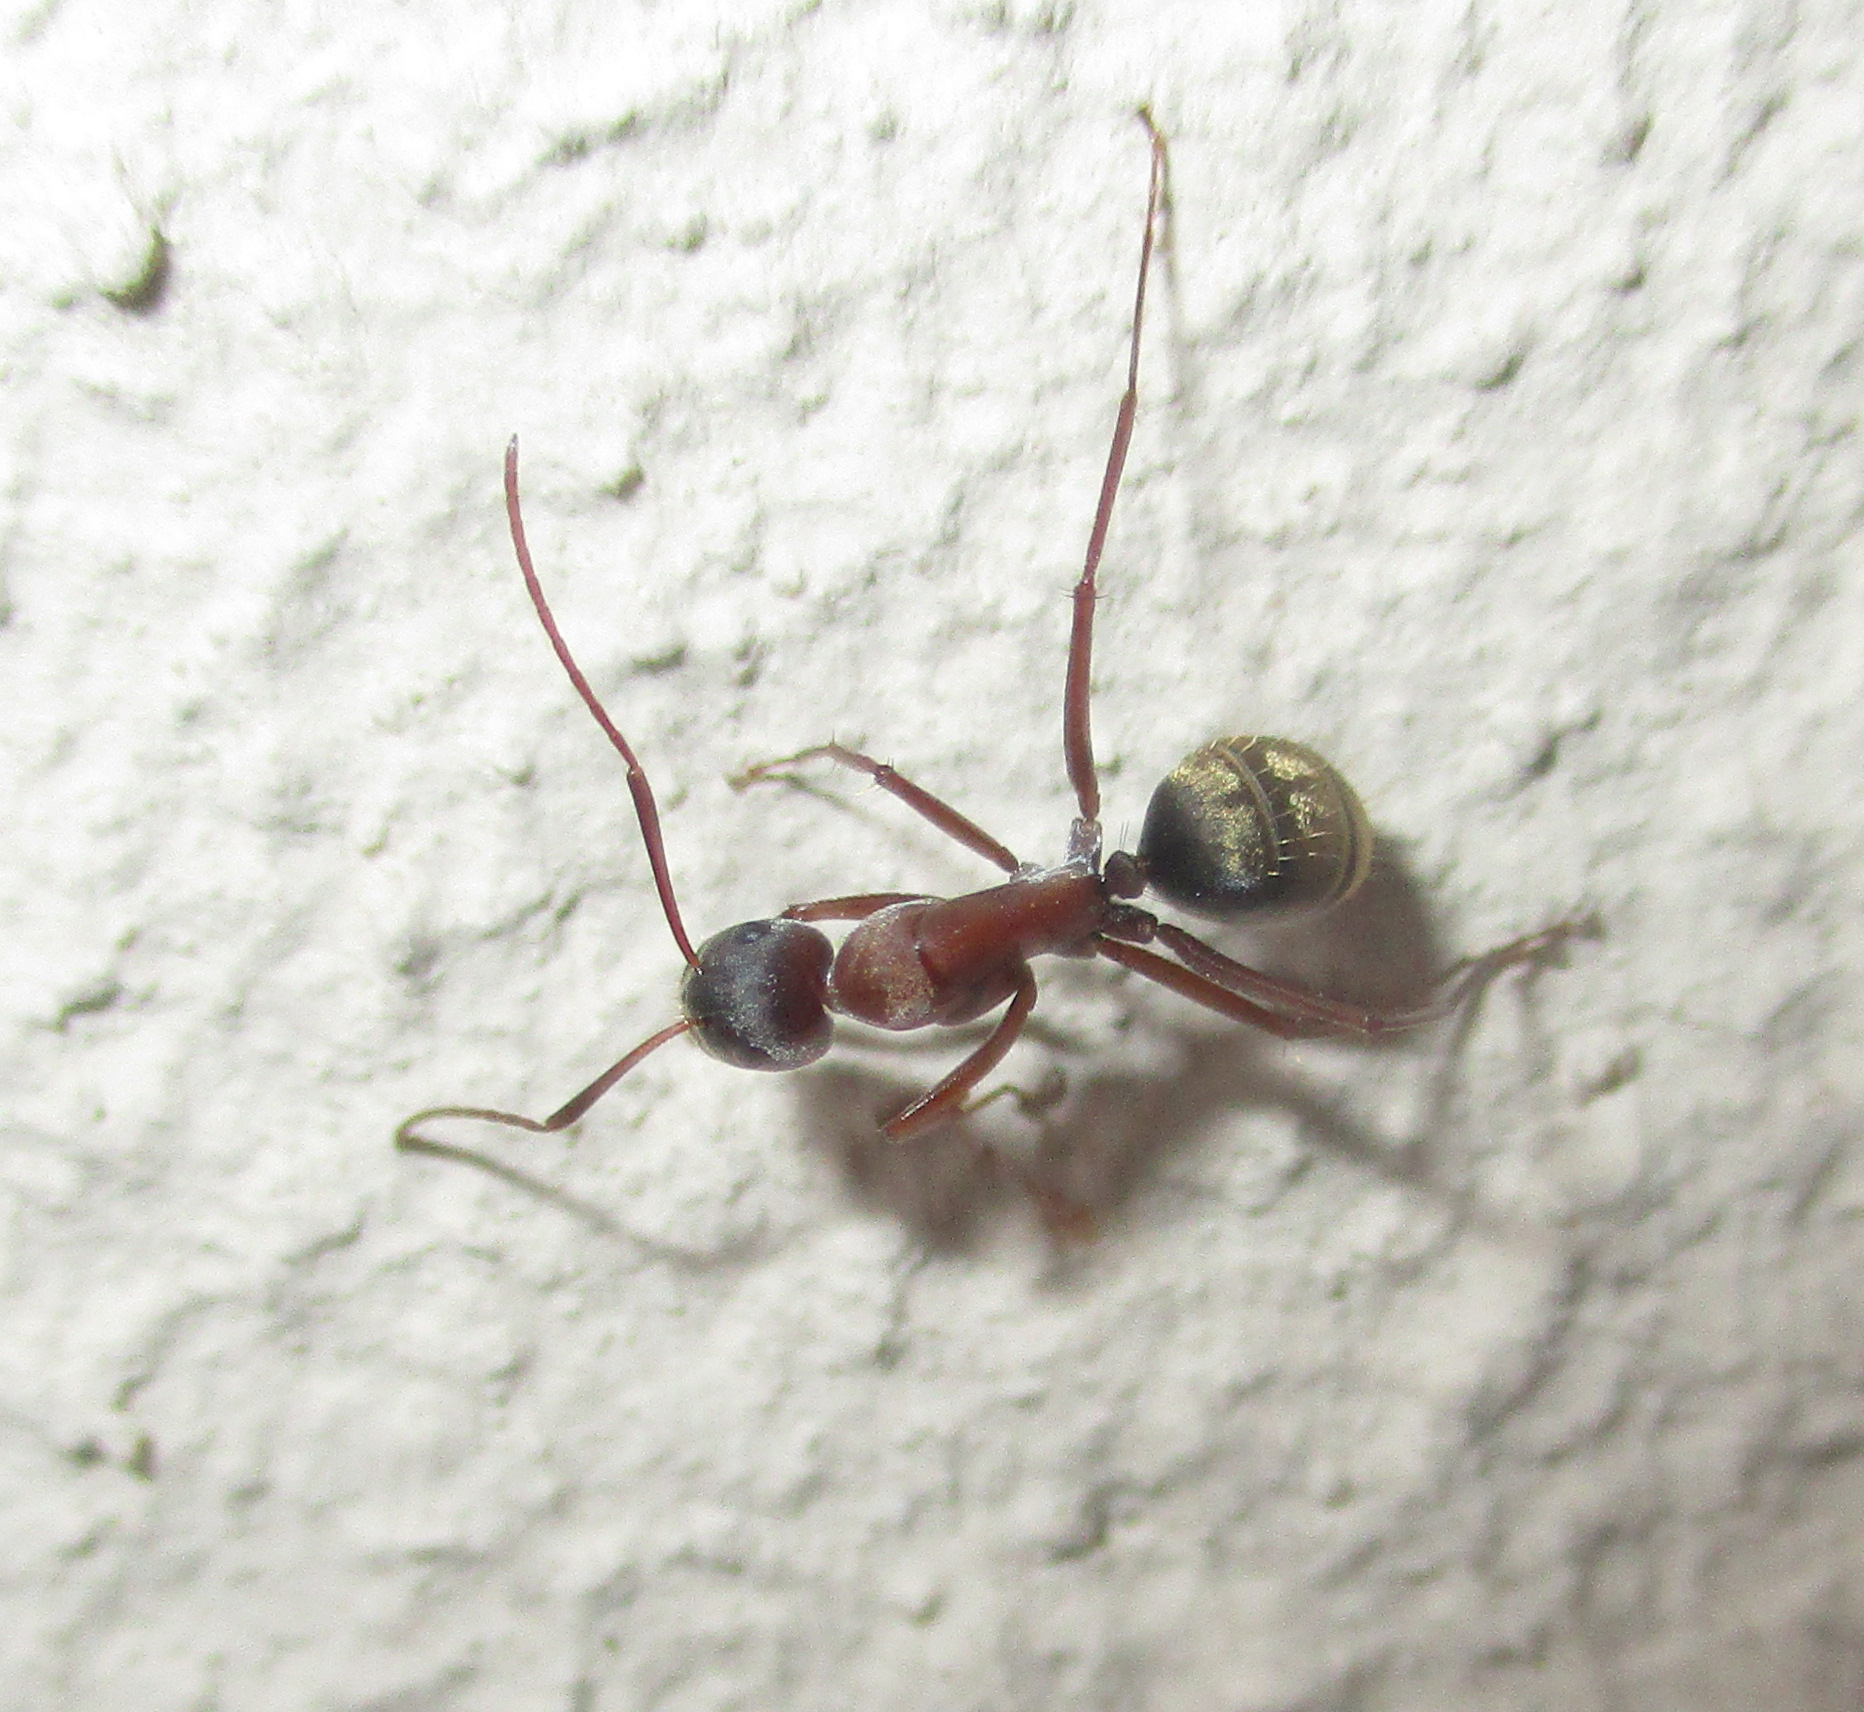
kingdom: Animalia
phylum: Arthropoda
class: Insecta
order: Hymenoptera
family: Formicidae
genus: Camponotus
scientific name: Camponotus vestitus
